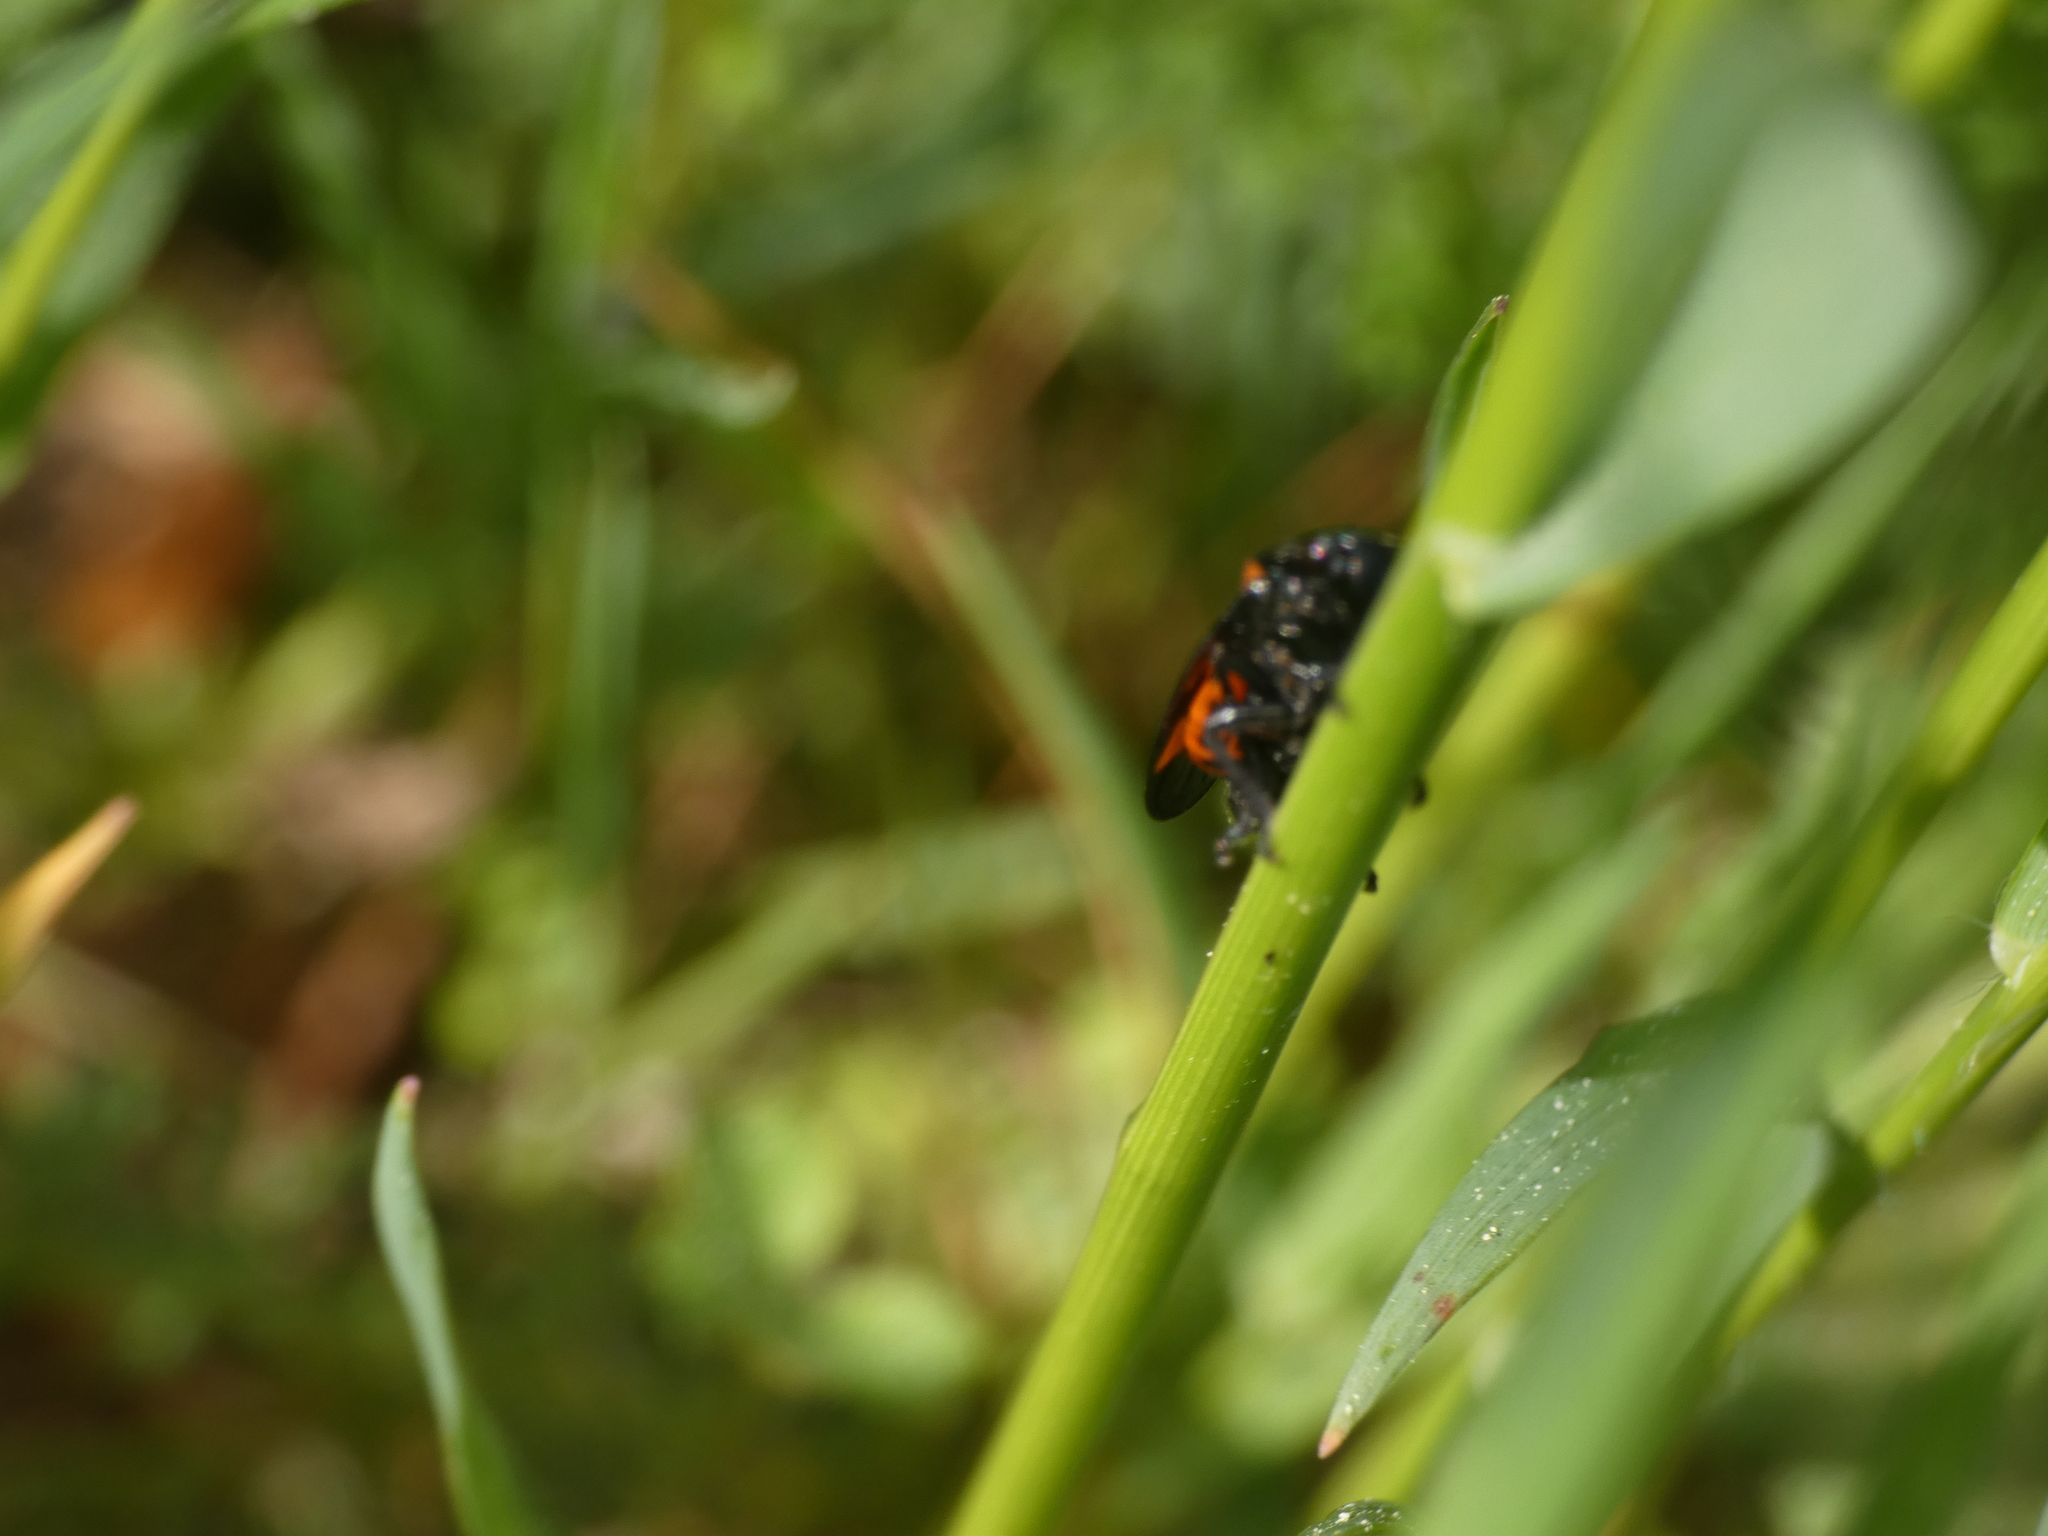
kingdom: Animalia
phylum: Arthropoda
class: Insecta
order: Hemiptera
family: Cercopidae
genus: Cercopis
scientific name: Cercopis sanguinolenta
